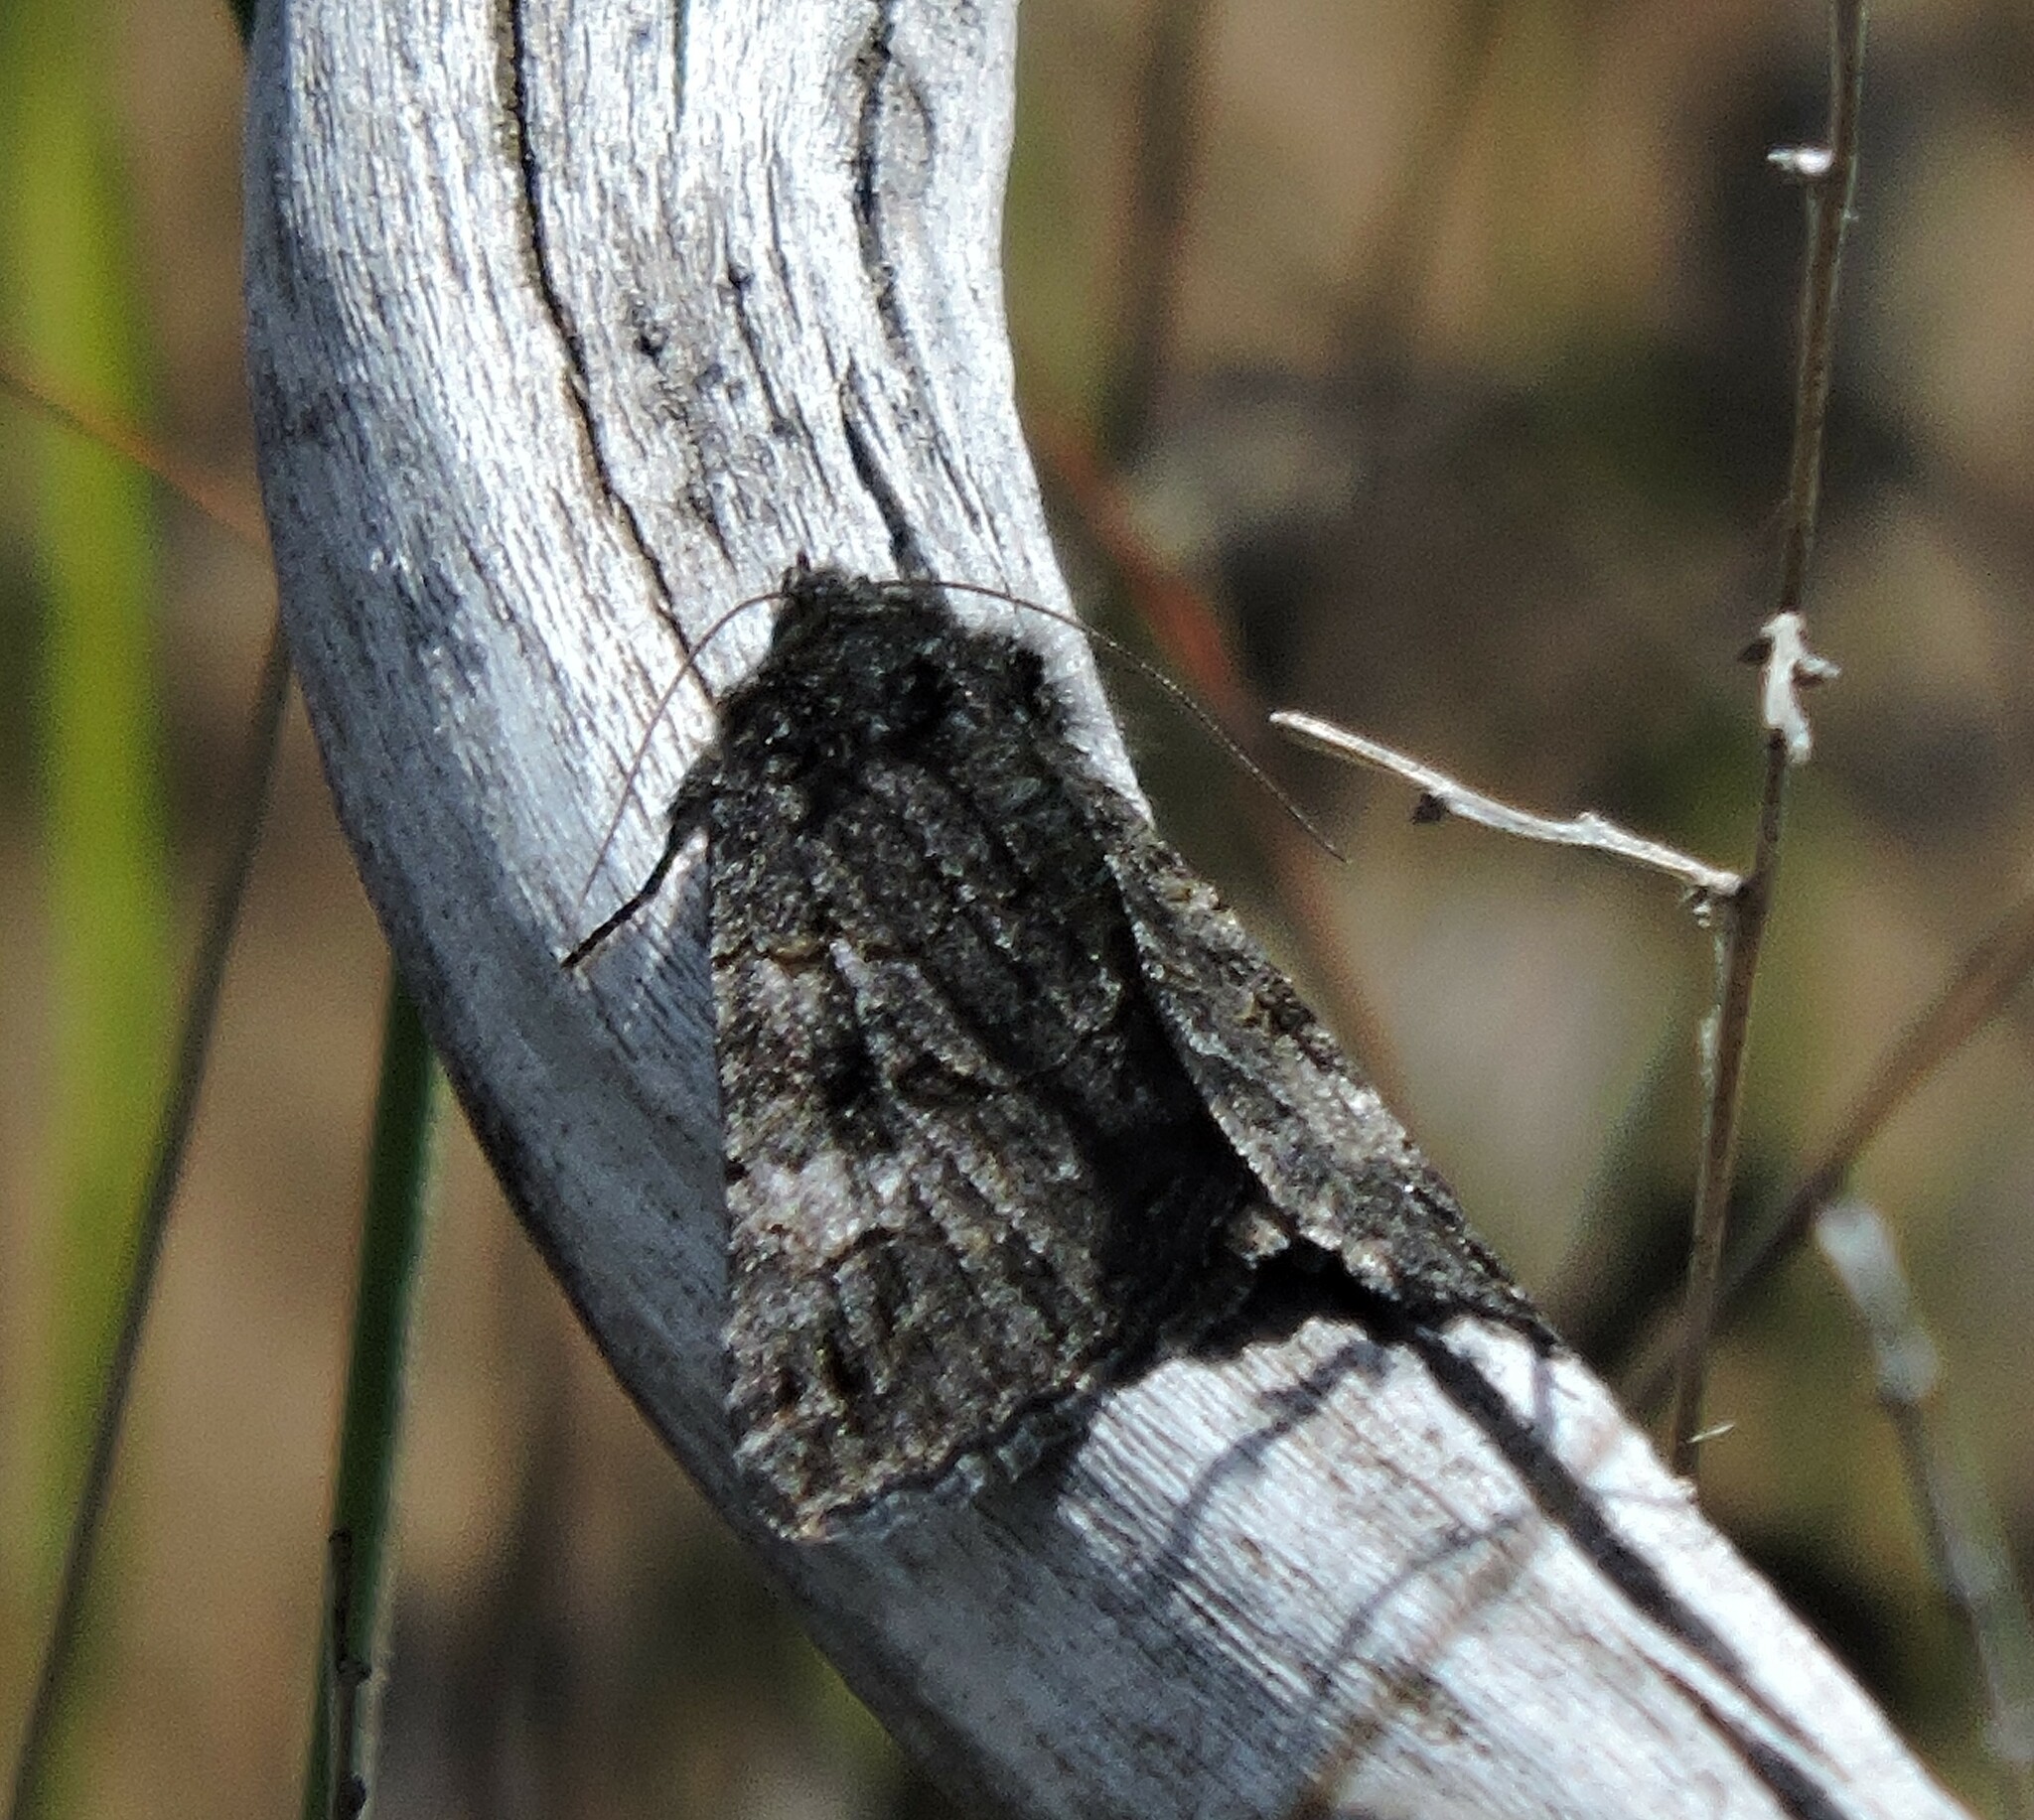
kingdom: Animalia
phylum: Arthropoda
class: Insecta
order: Lepidoptera
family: Erebidae
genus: Litocala
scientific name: Litocala sexsignata
